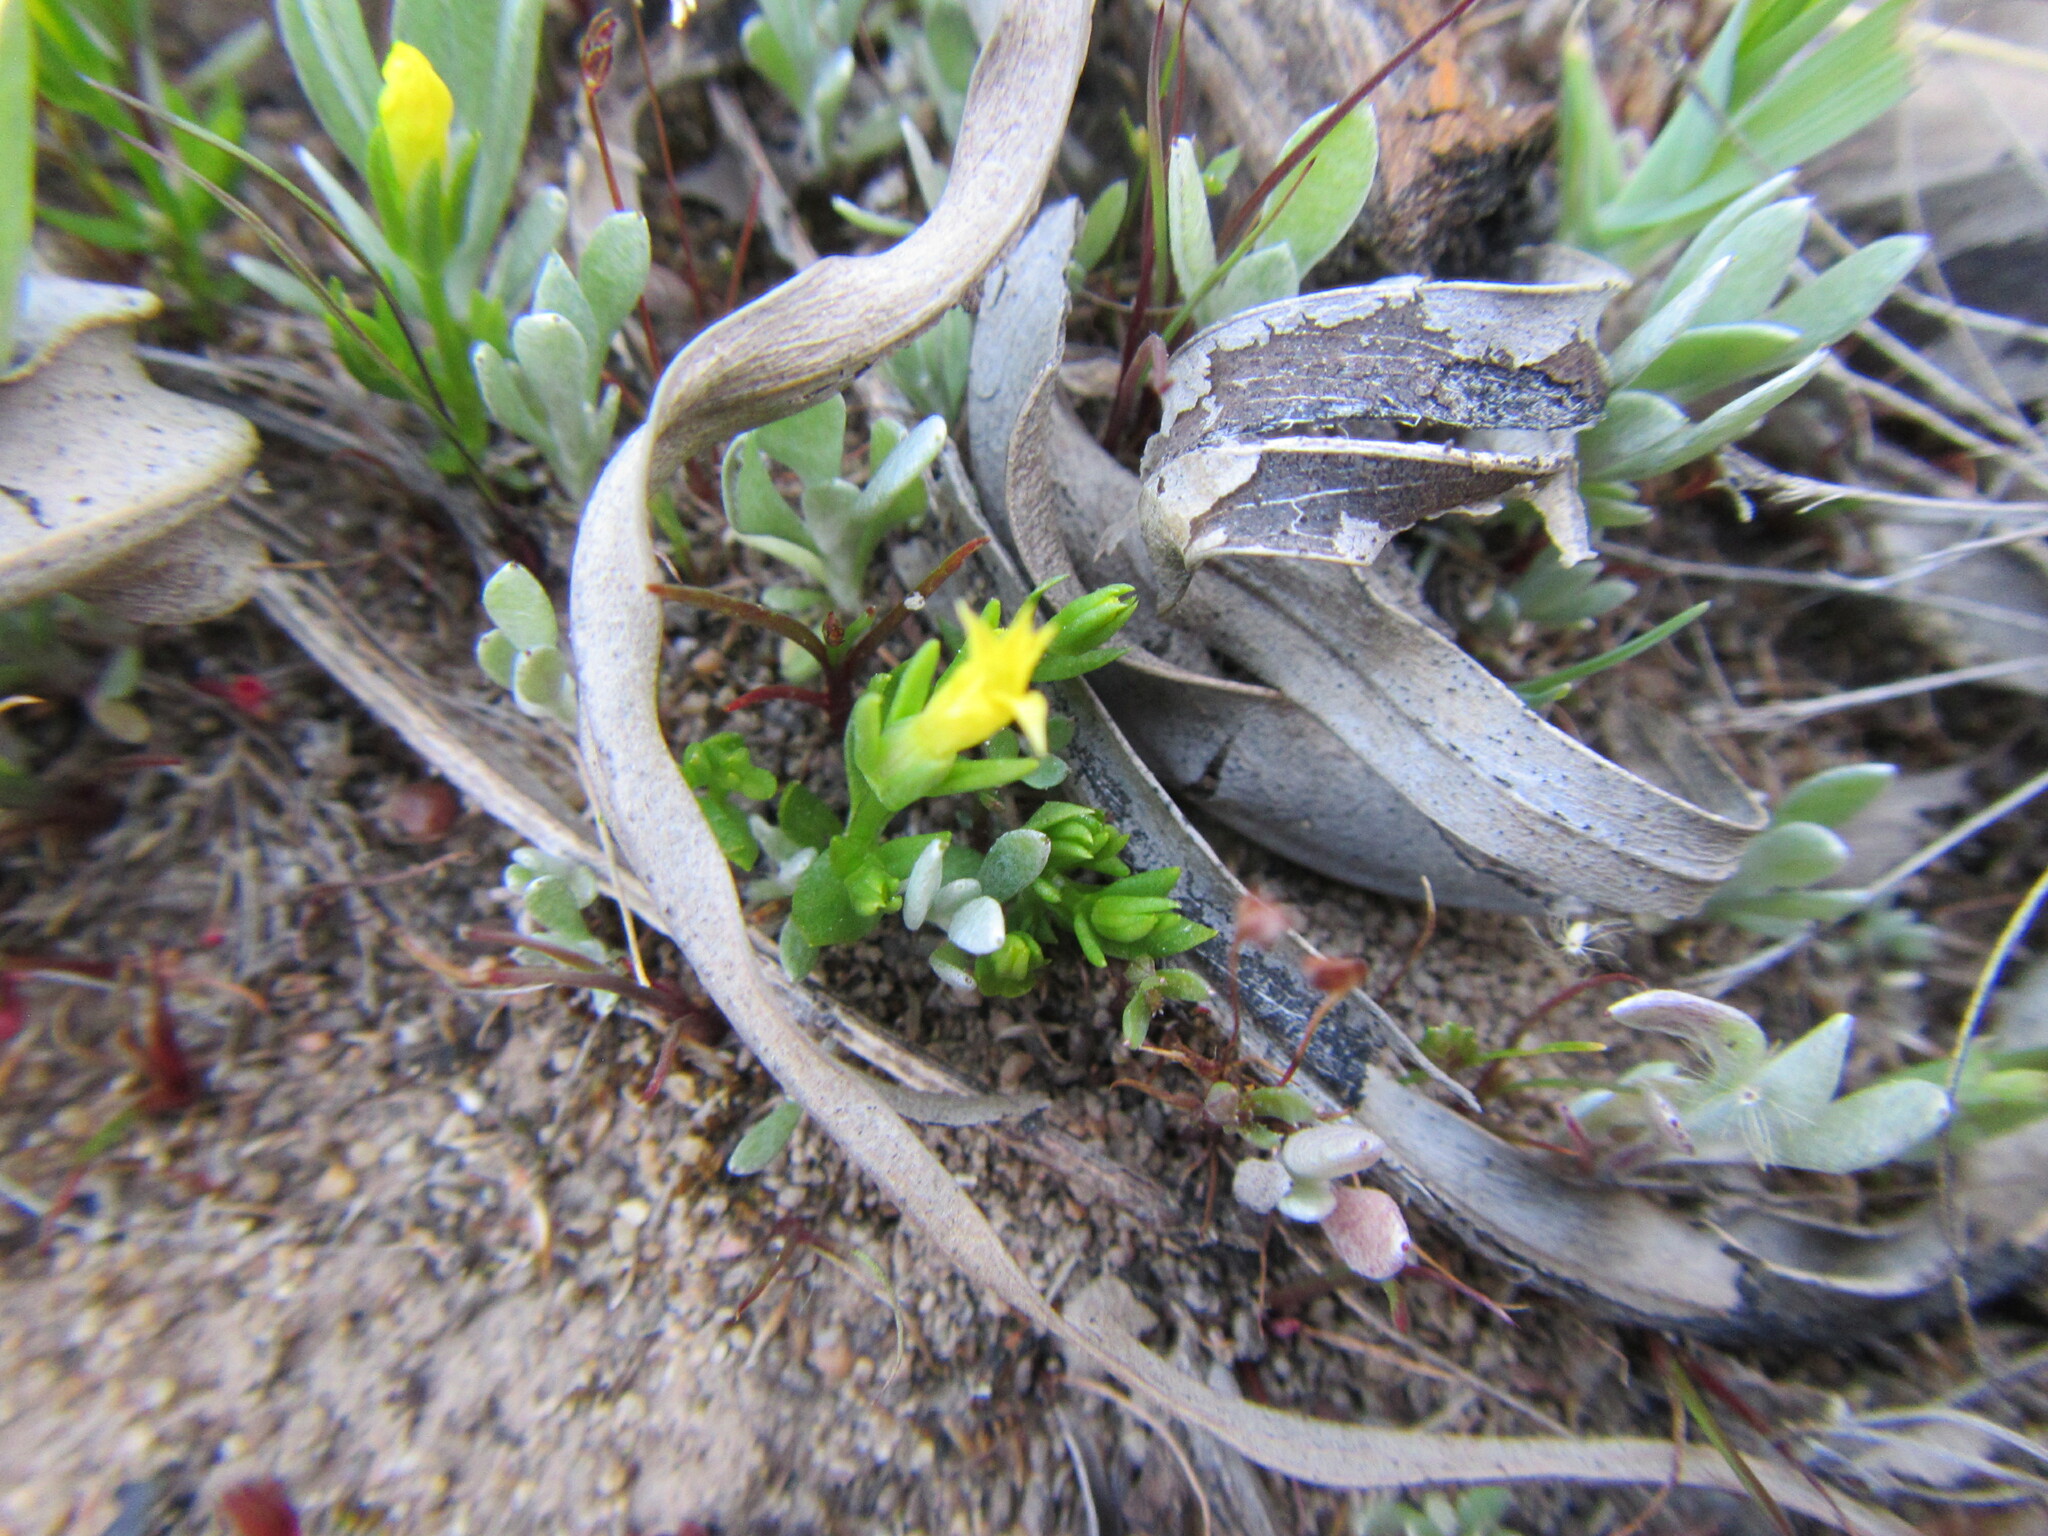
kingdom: Plantae
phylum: Tracheophyta
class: Magnoliopsida
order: Gentianales
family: Gentianaceae
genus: Sebaea
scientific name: Sebaea pusilla
